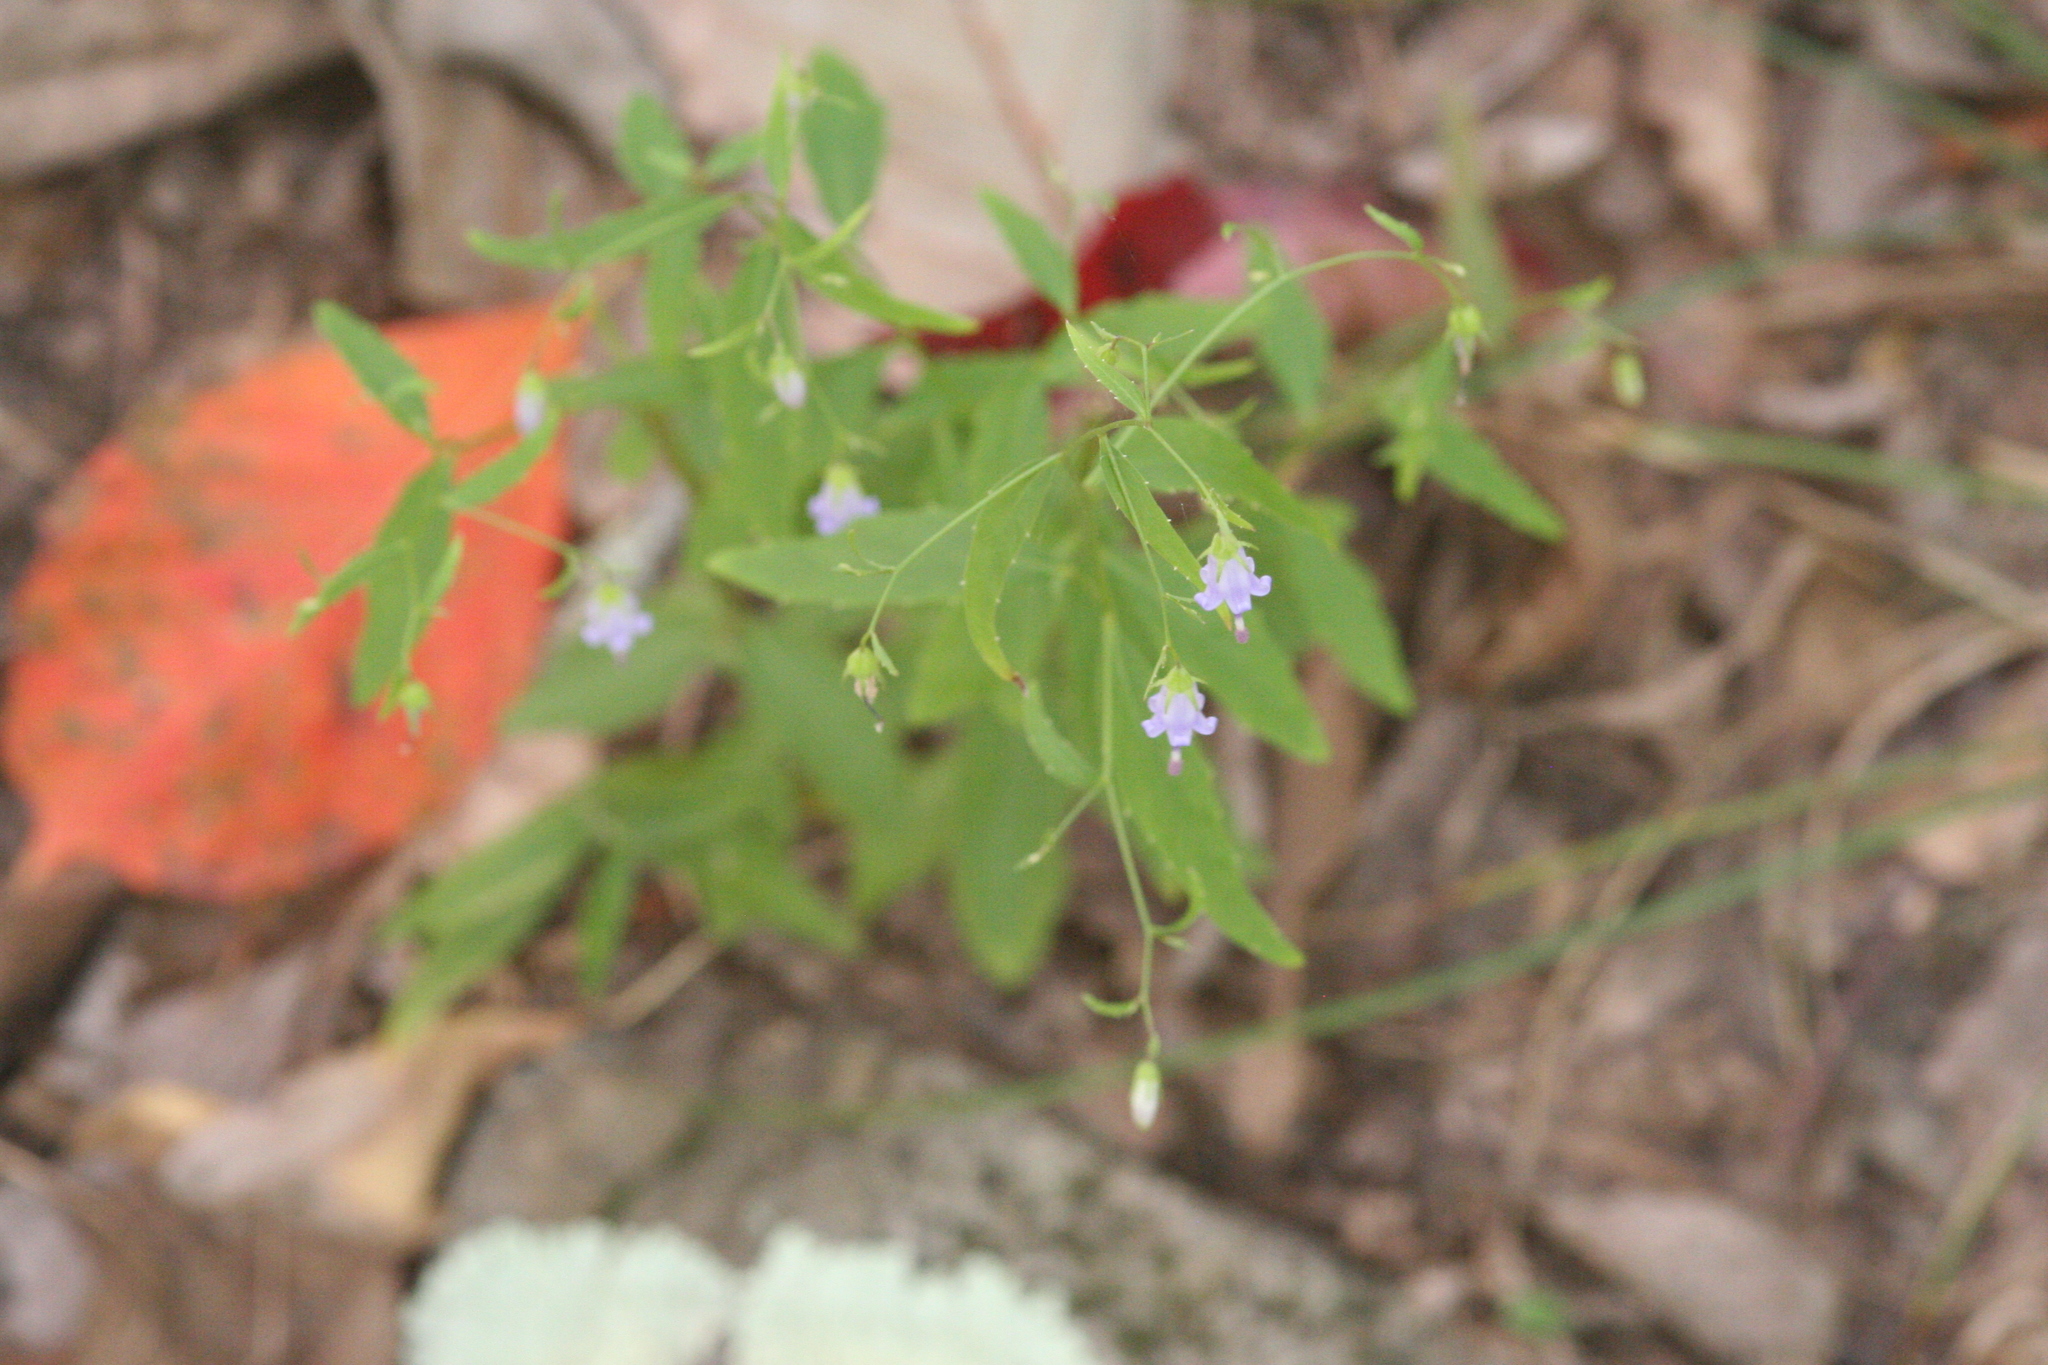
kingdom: Plantae
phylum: Tracheophyta
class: Magnoliopsida
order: Asterales
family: Campanulaceae
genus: Campanula
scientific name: Campanula divaricata
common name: Appalachian bellflower
